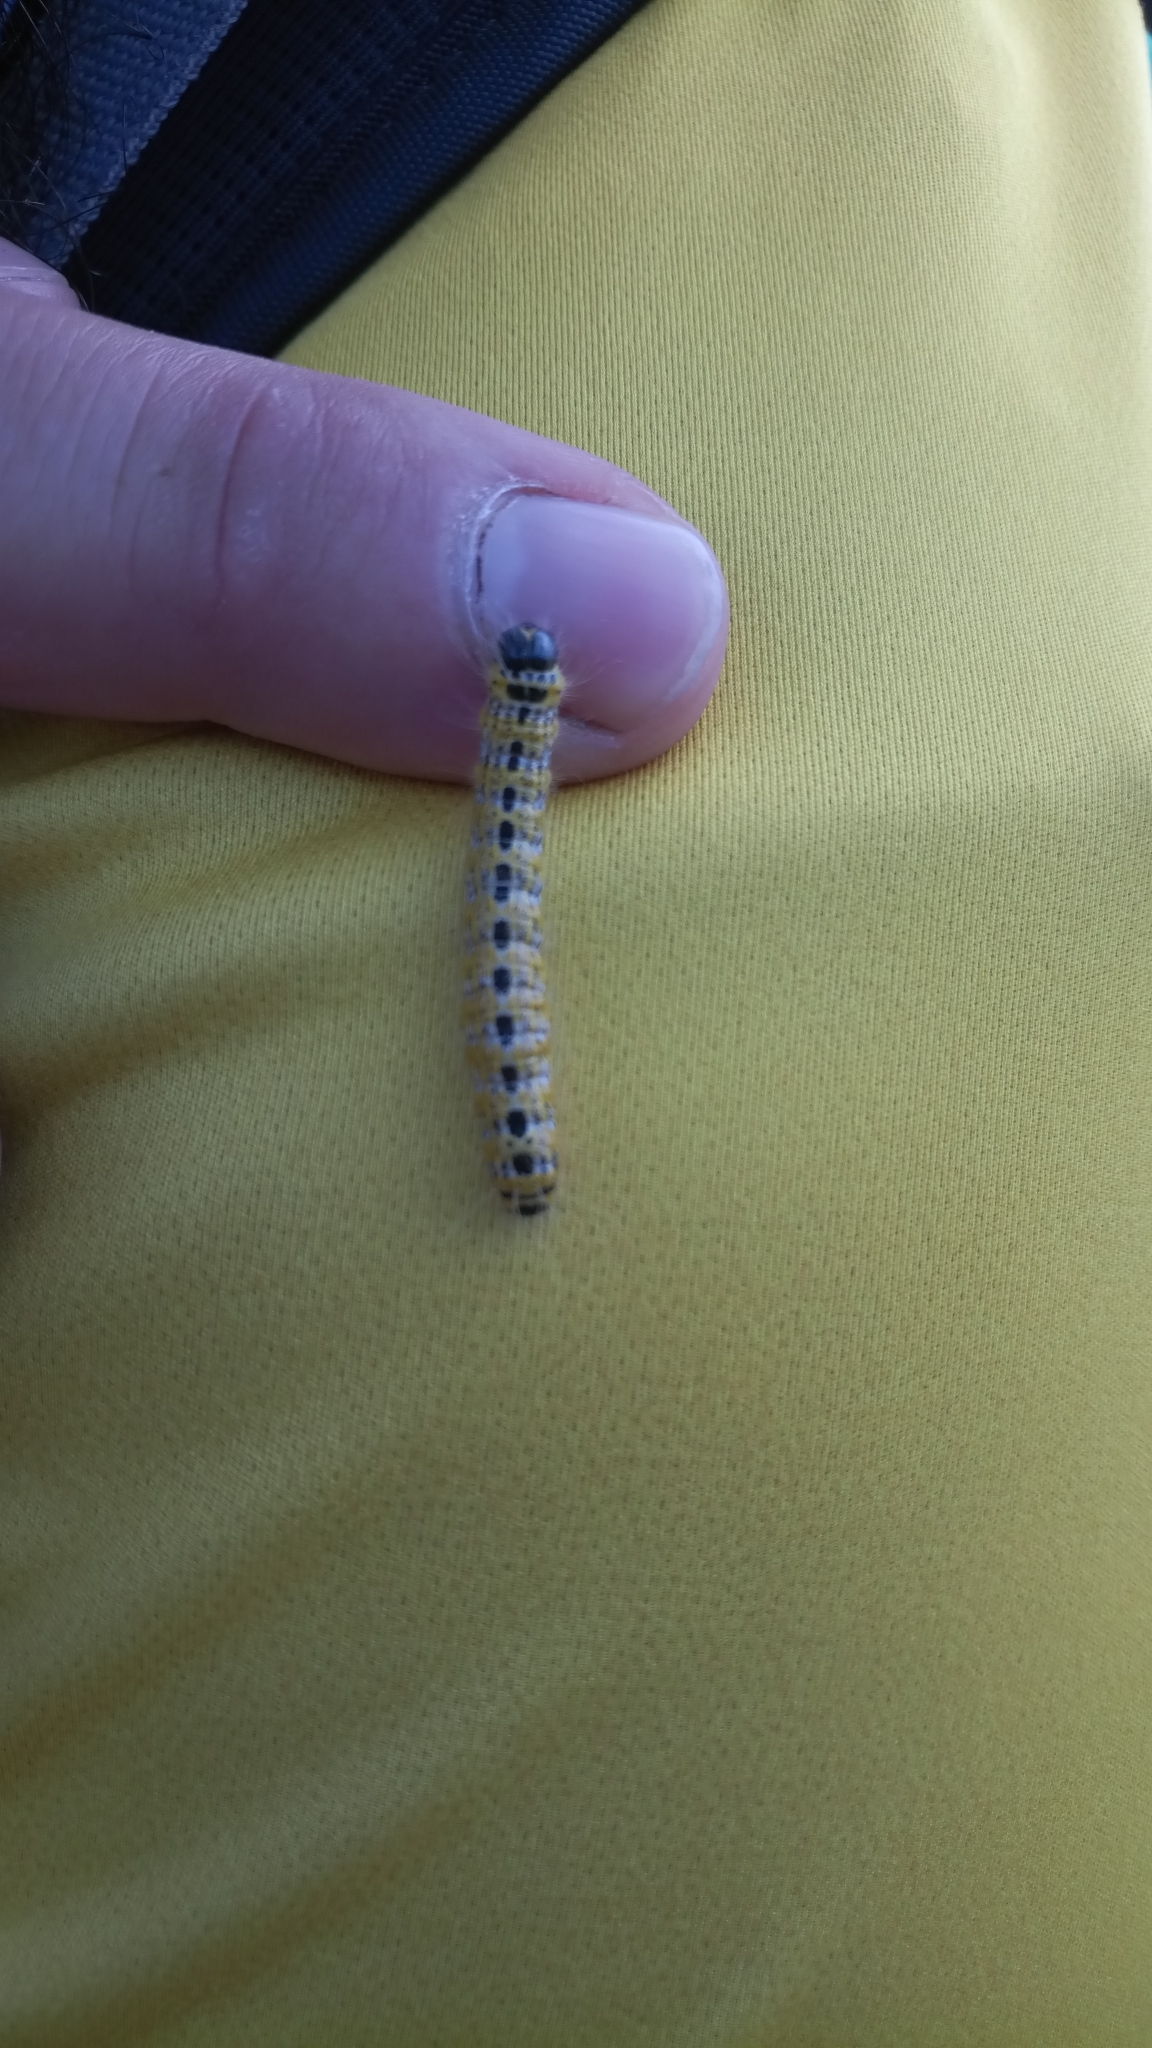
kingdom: Animalia
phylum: Arthropoda
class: Insecta
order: Lepidoptera
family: Notodontidae
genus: Phalera
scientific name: Phalera bucephala
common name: Buff-tip
